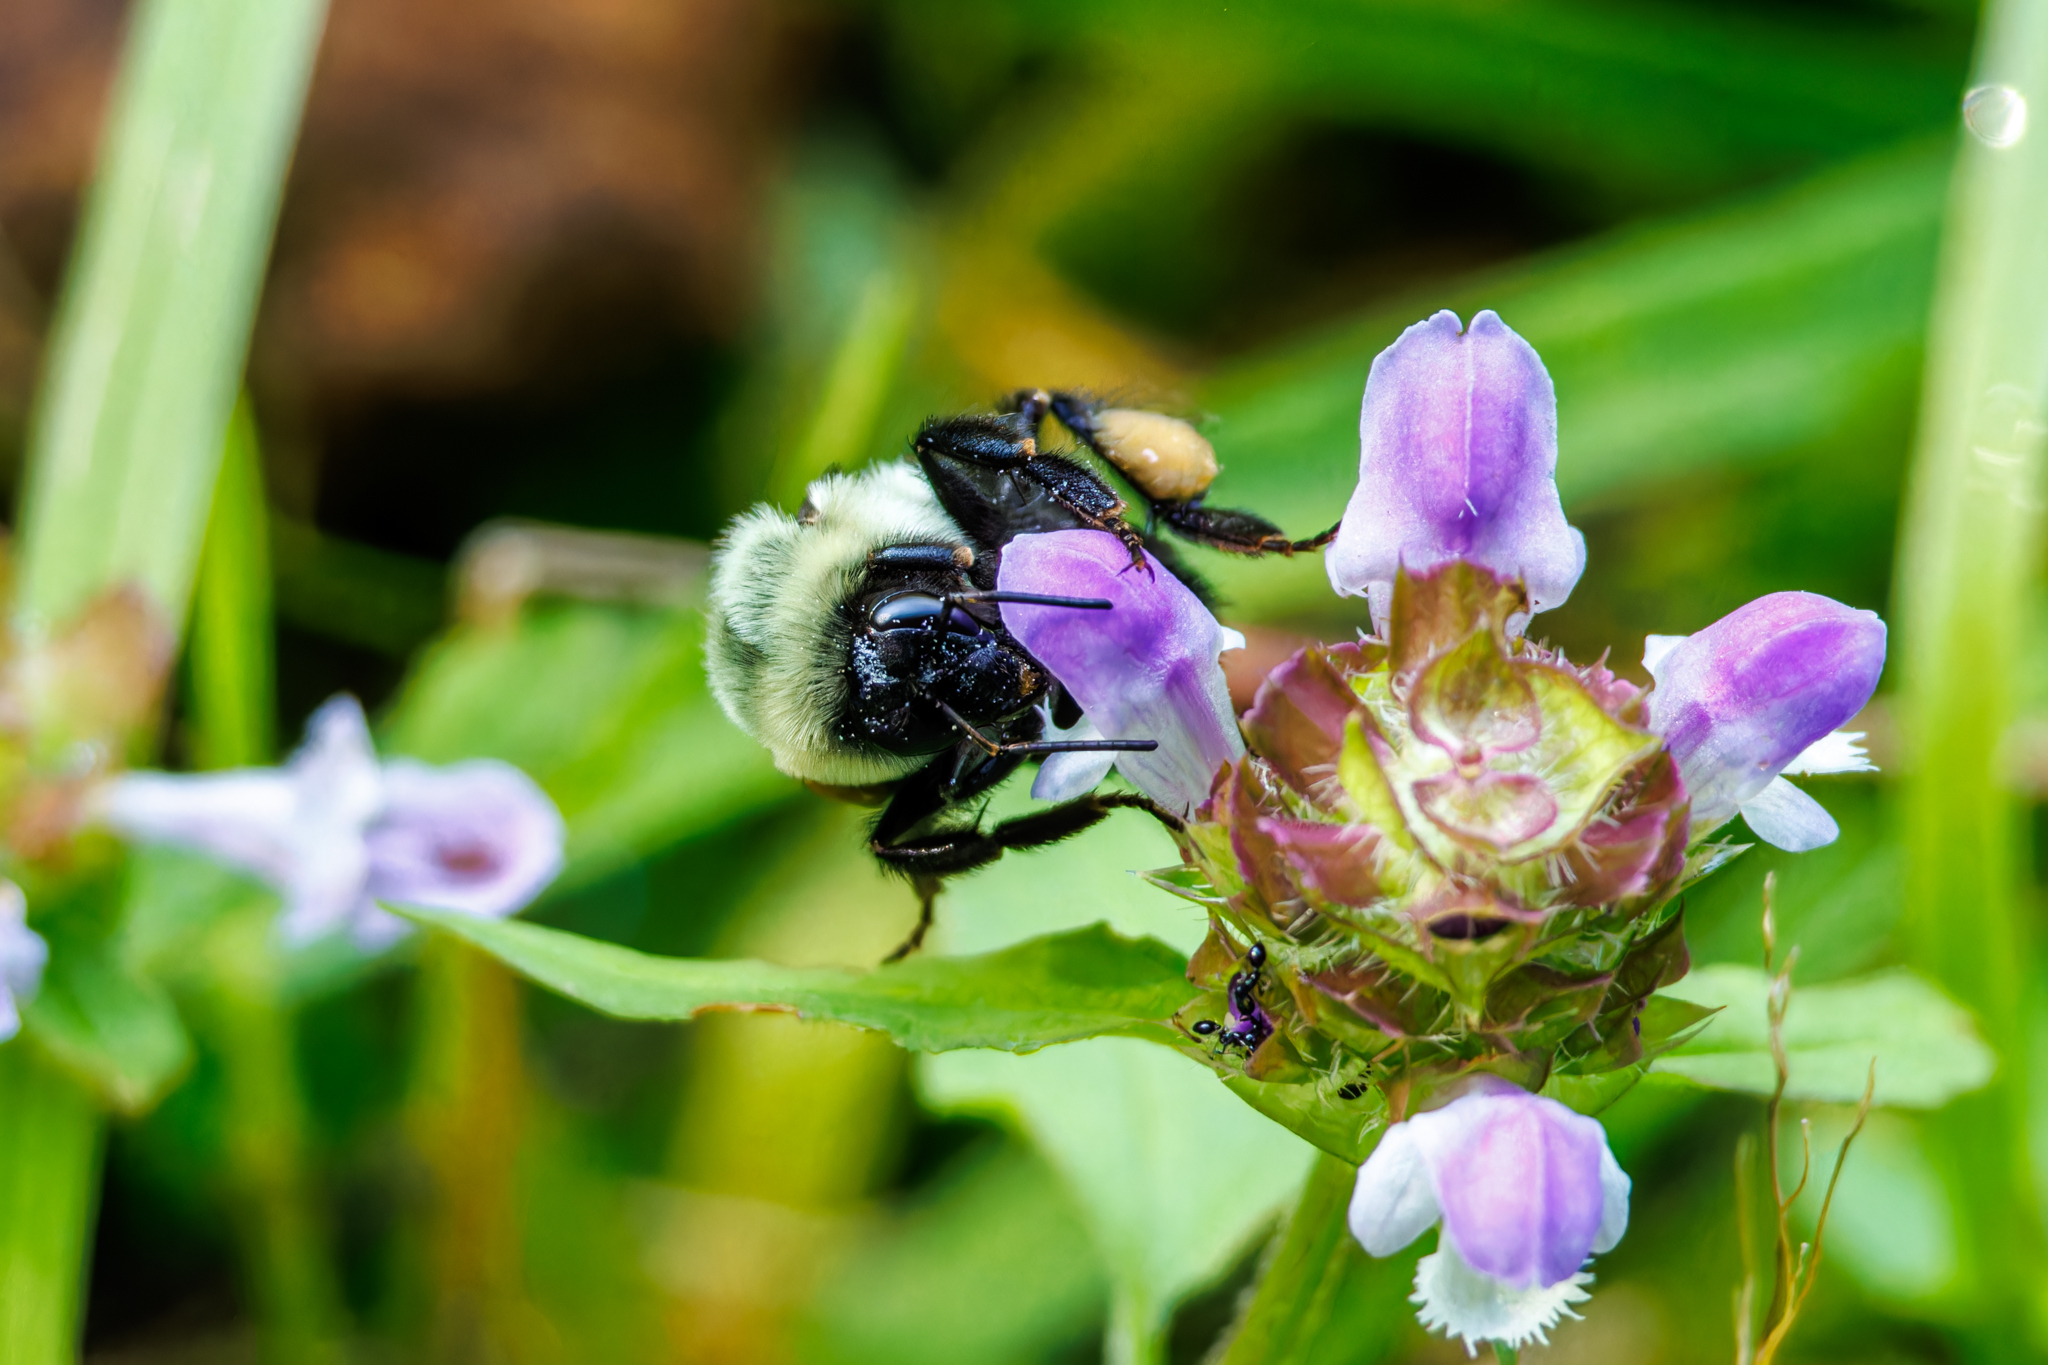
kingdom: Animalia
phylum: Arthropoda
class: Insecta
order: Hymenoptera
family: Apidae
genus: Bombus
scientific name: Bombus impatiens
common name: Common eastern bumble bee
